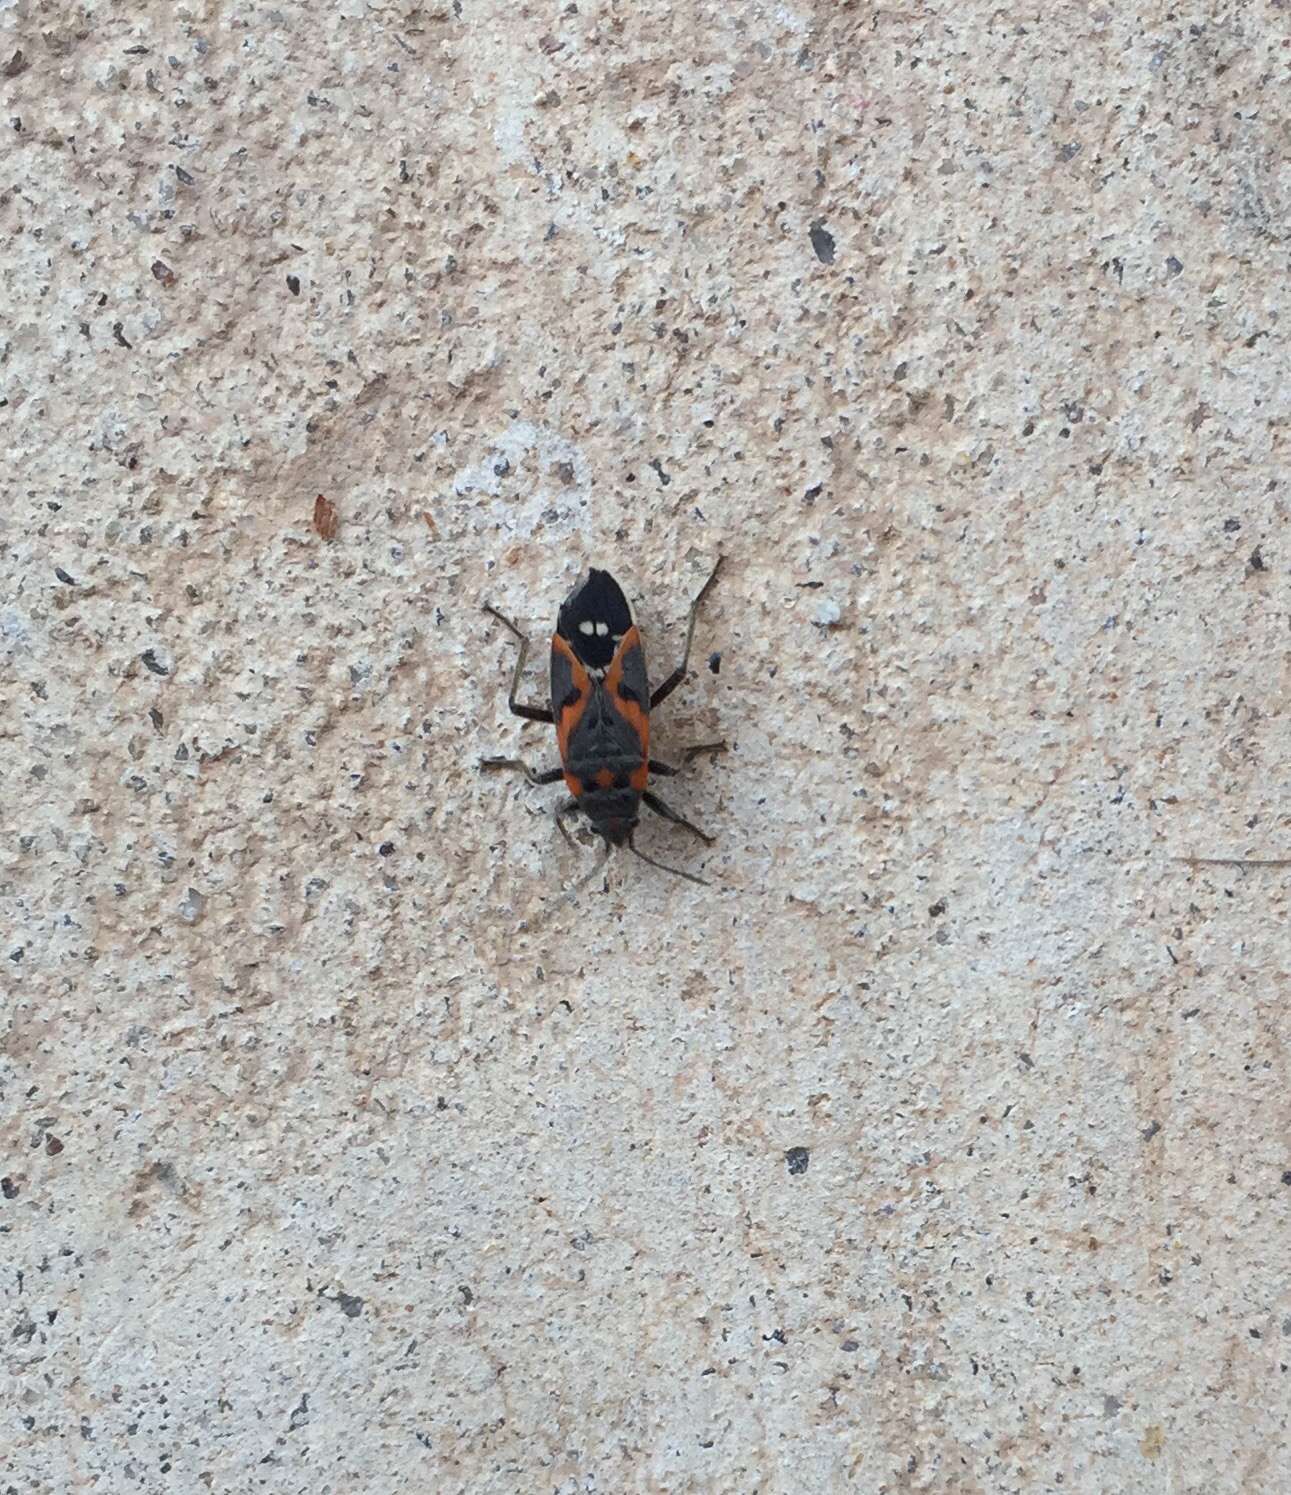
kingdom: Animalia
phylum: Arthropoda
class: Insecta
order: Hemiptera
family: Lygaeidae
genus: Lygaeus
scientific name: Lygaeus kalmii
